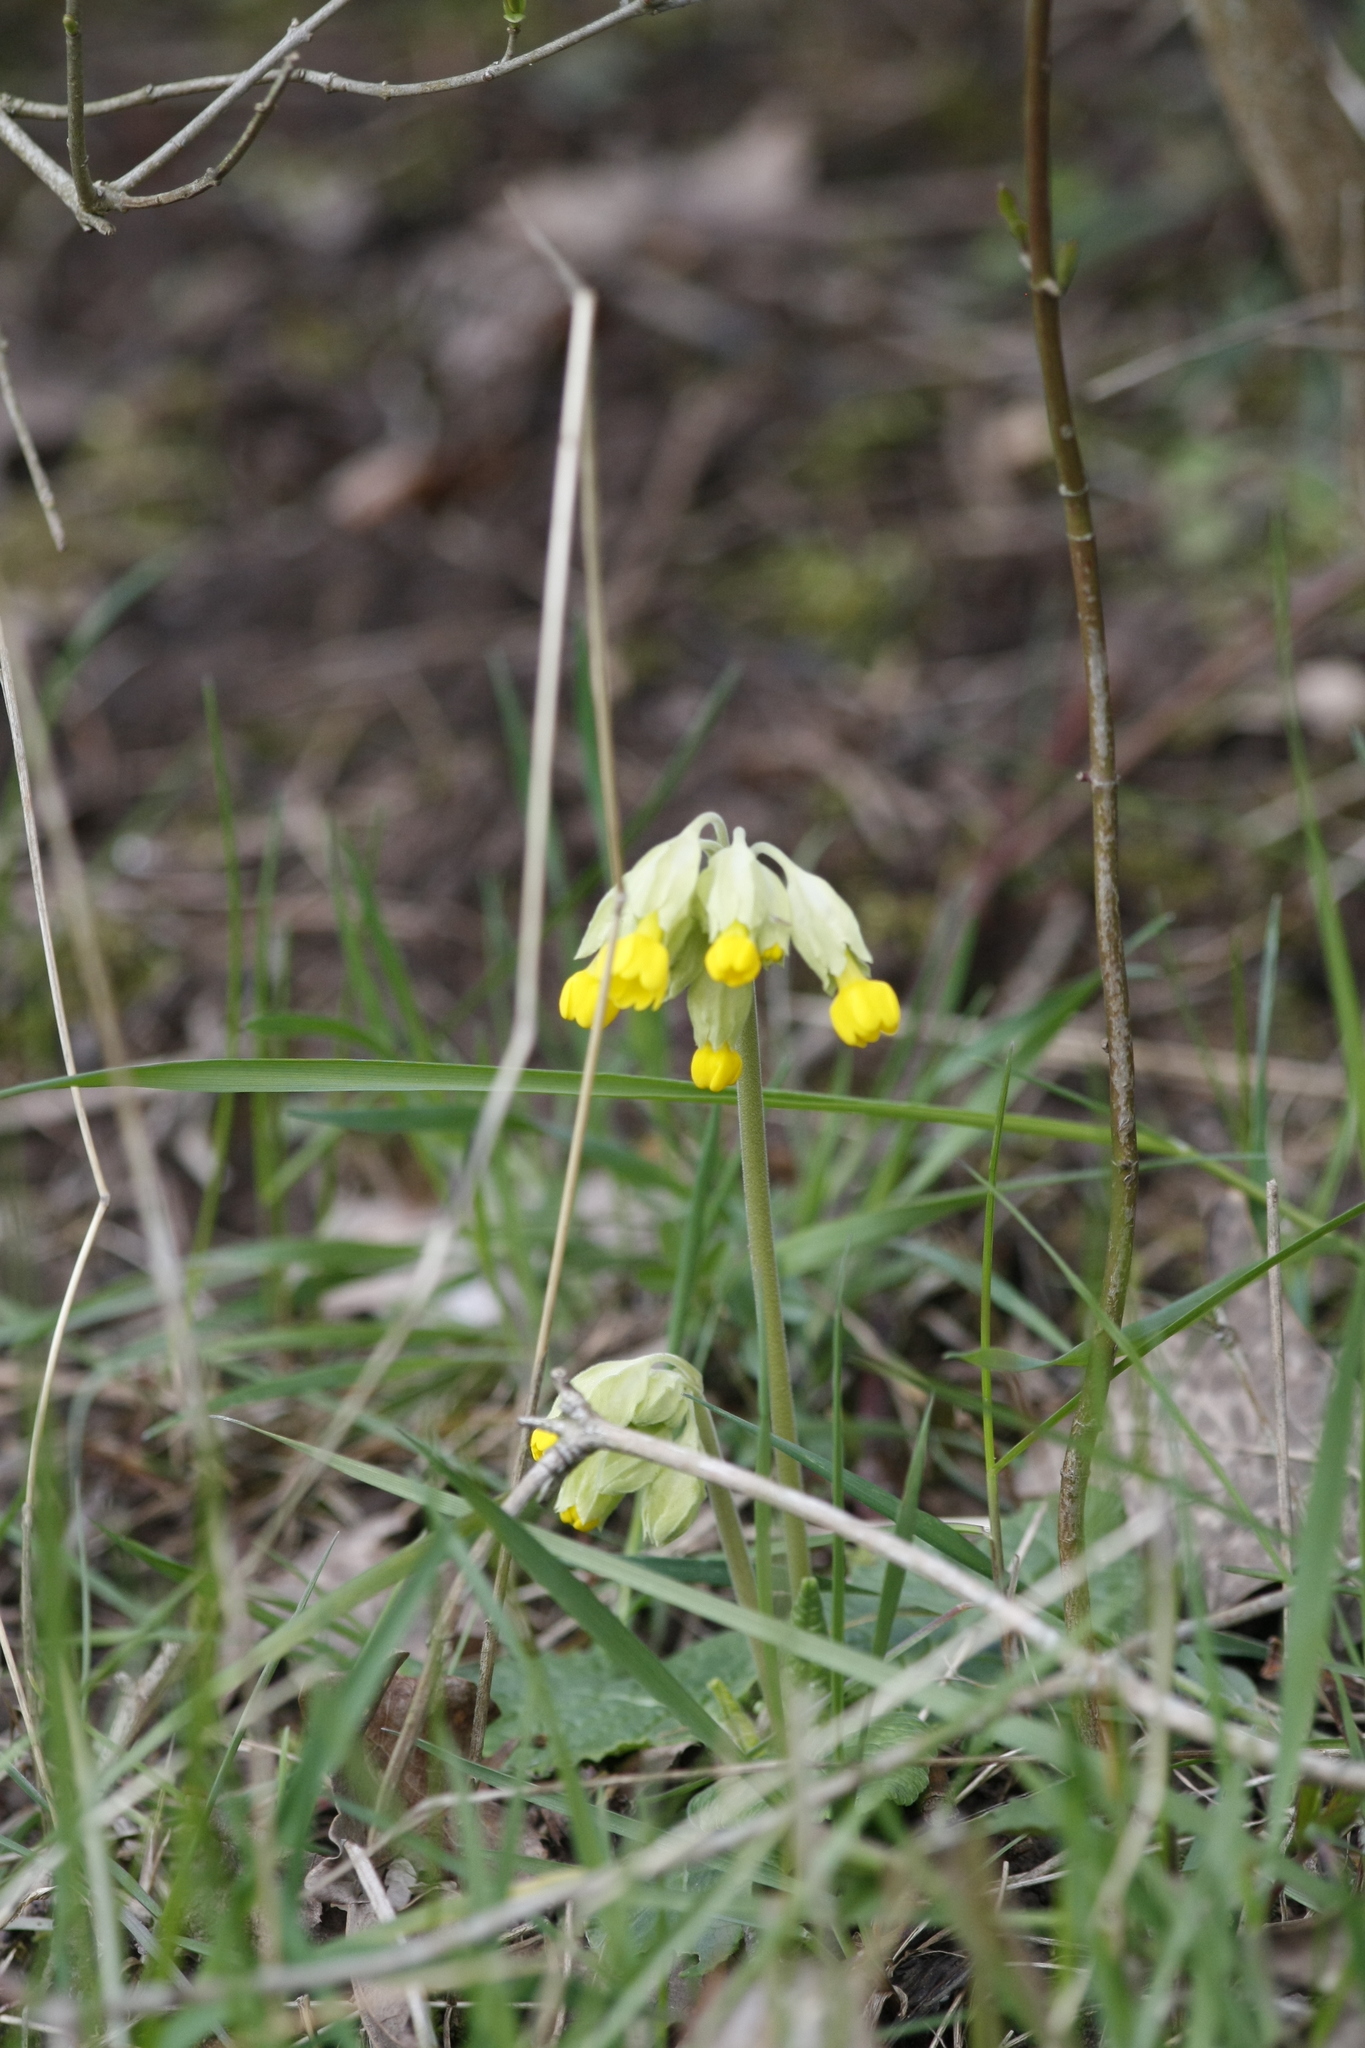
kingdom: Plantae
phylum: Tracheophyta
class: Magnoliopsida
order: Ericales
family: Primulaceae
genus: Primula
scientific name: Primula veris
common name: Cowslip
